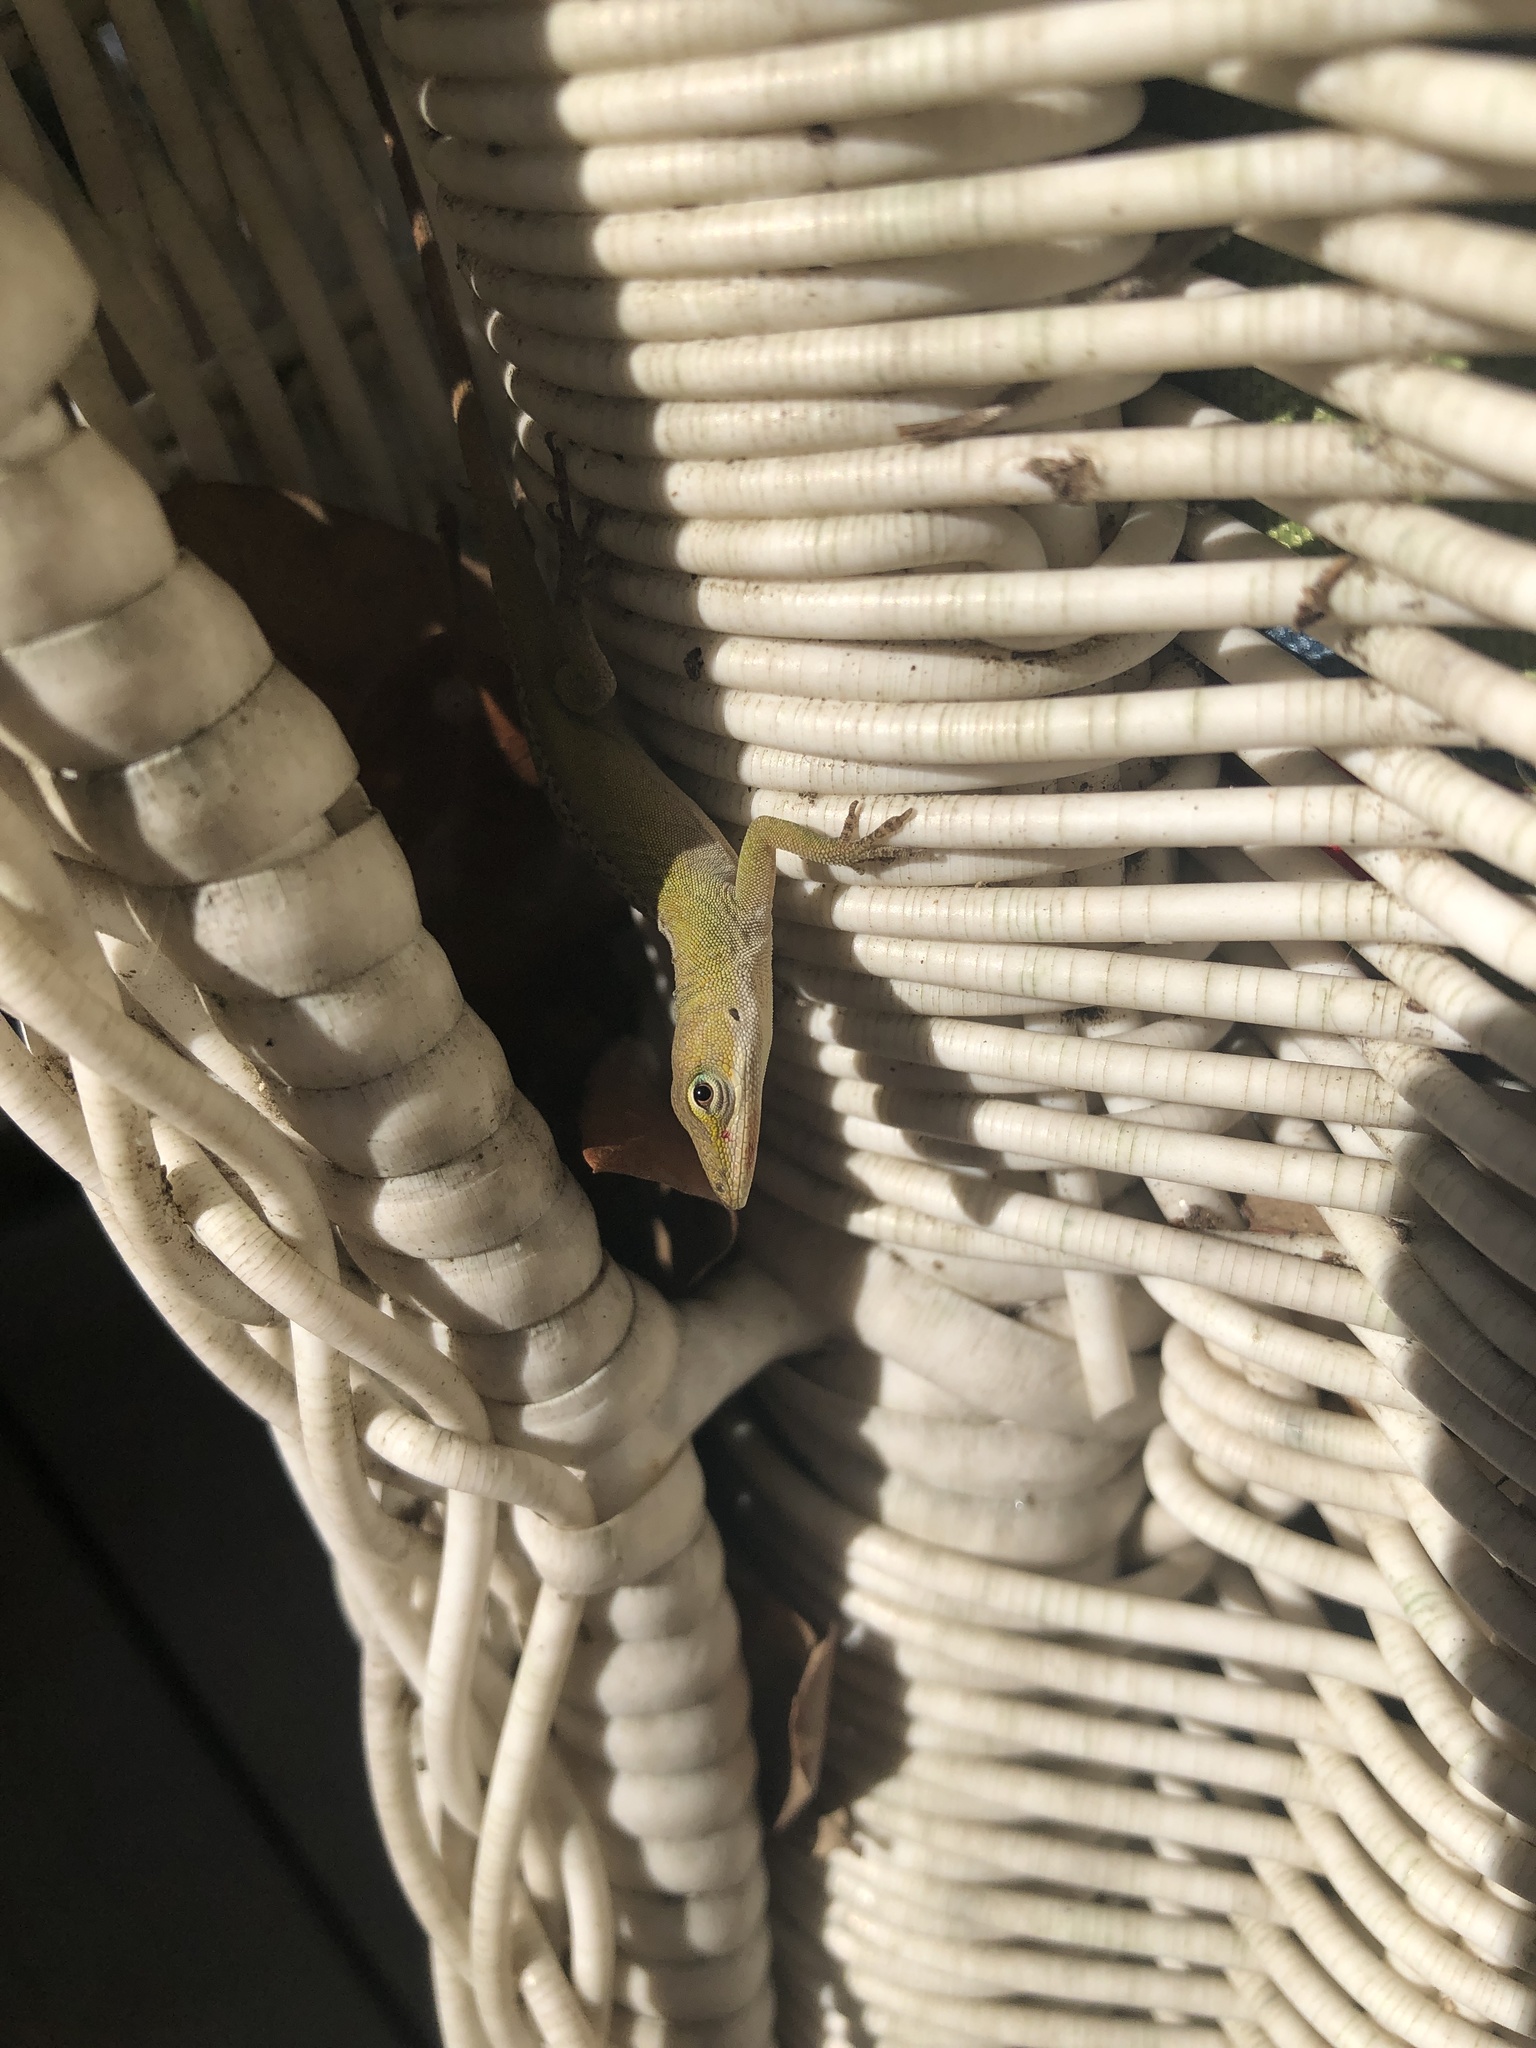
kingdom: Animalia
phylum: Chordata
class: Squamata
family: Dactyloidae
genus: Anolis
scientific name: Anolis carolinensis
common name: Green anole
